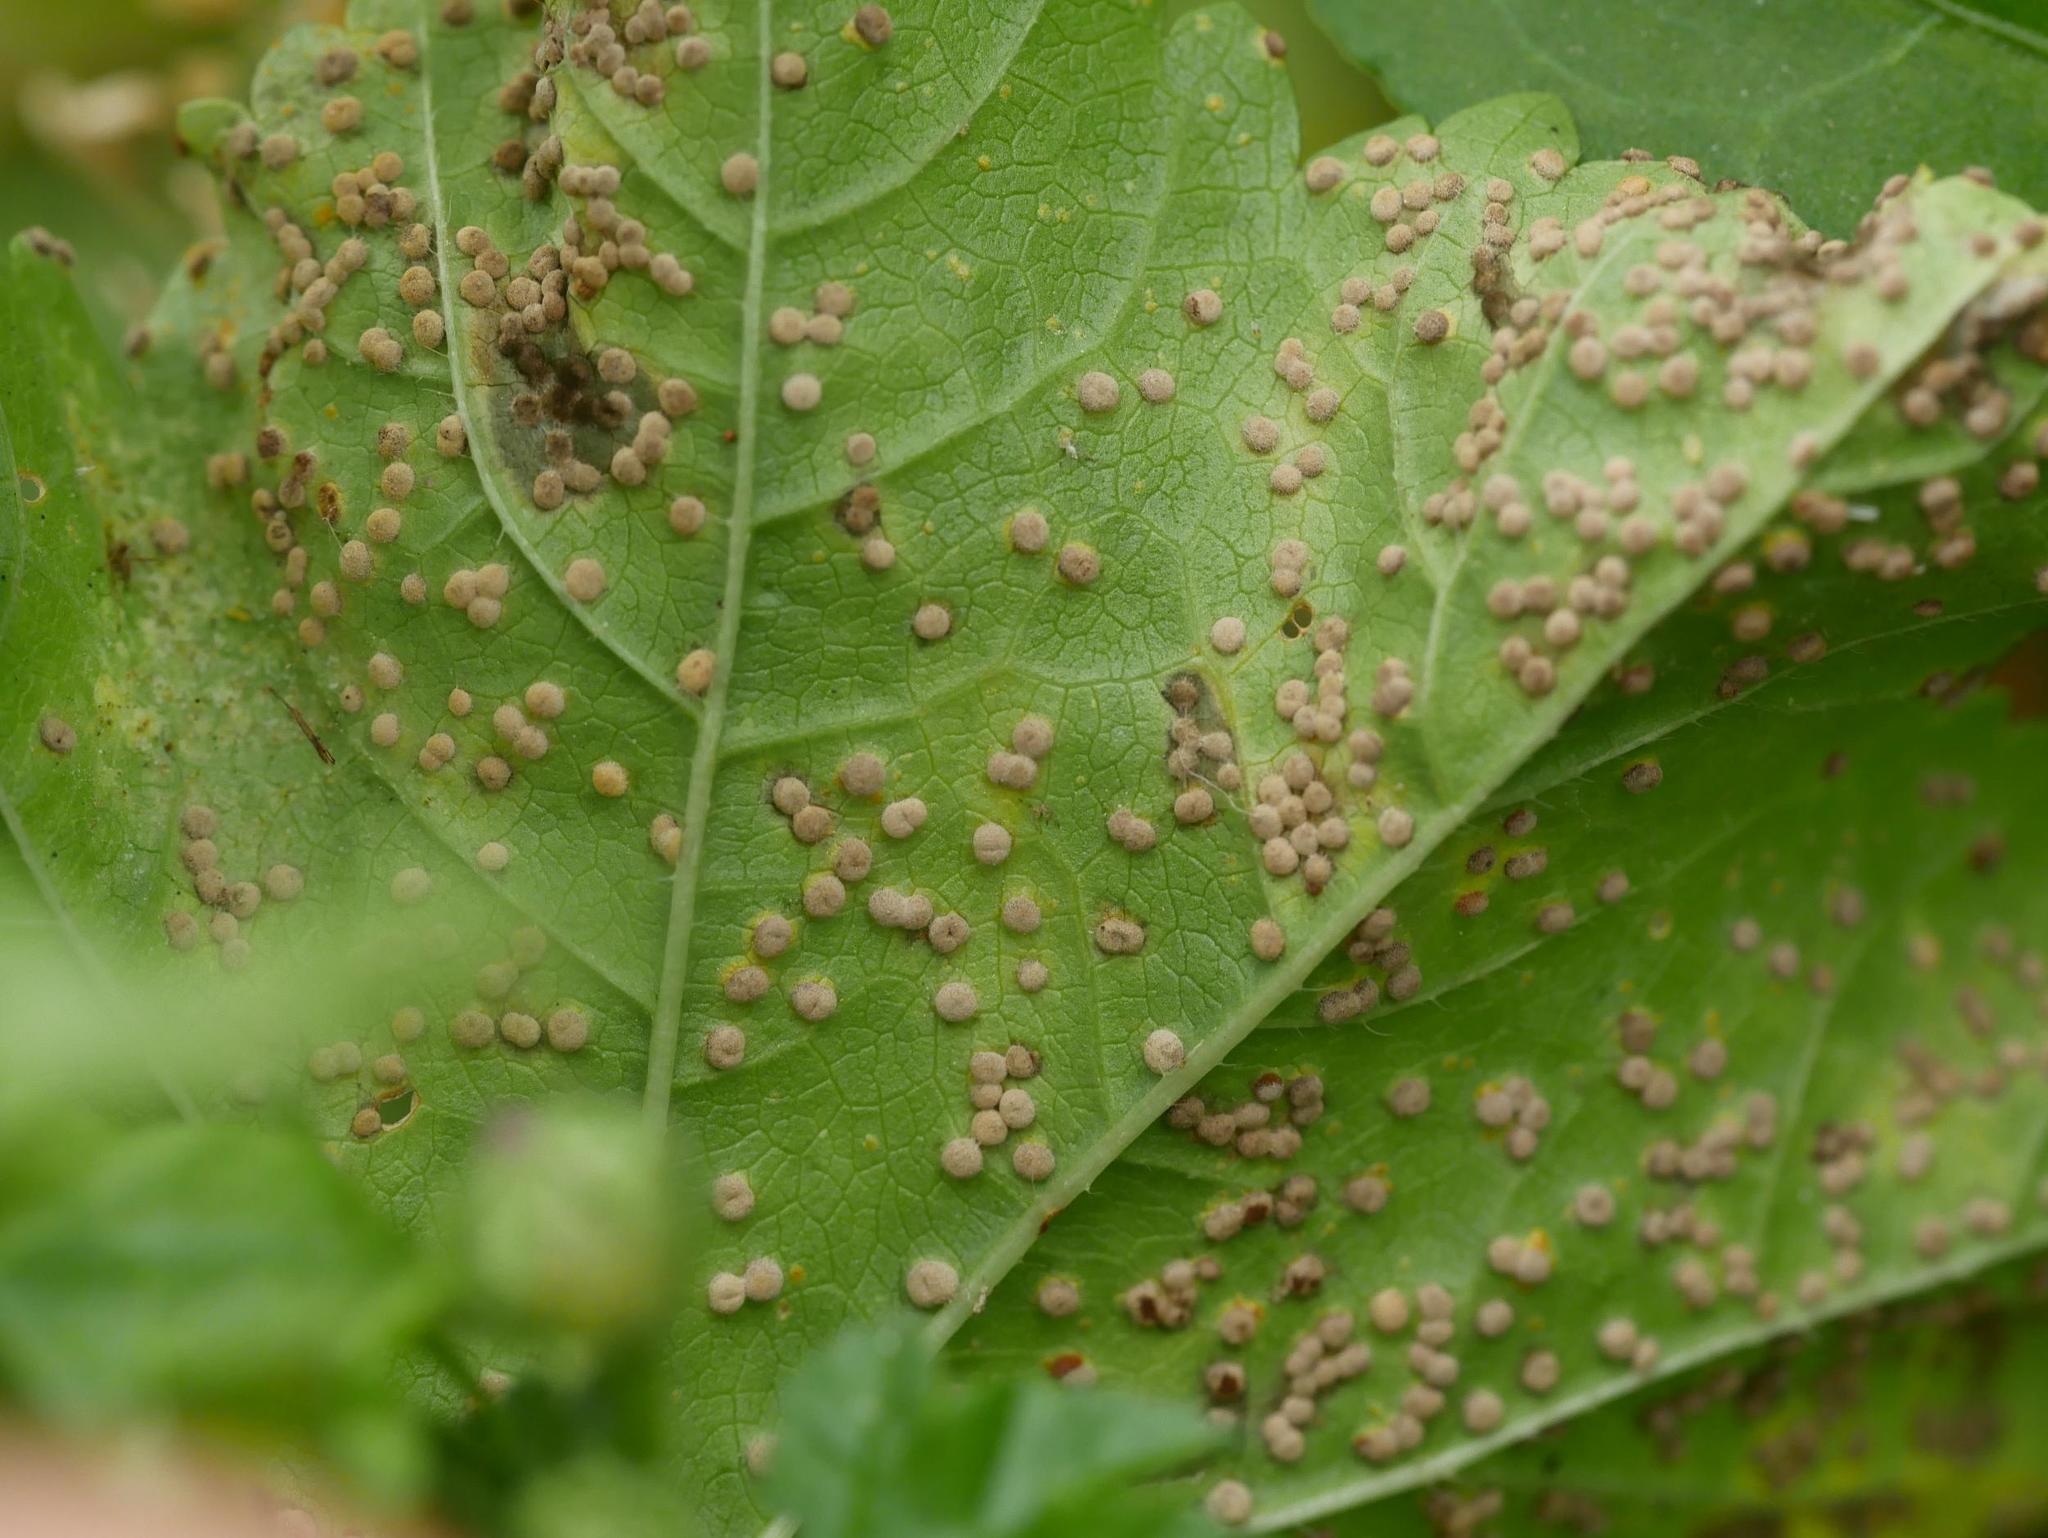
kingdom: Fungi
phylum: Basidiomycota
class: Pucciniomycetes
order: Pucciniales
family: Pucciniaceae
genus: Puccinia
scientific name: Puccinia malvacearum
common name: Hollyhock rust
